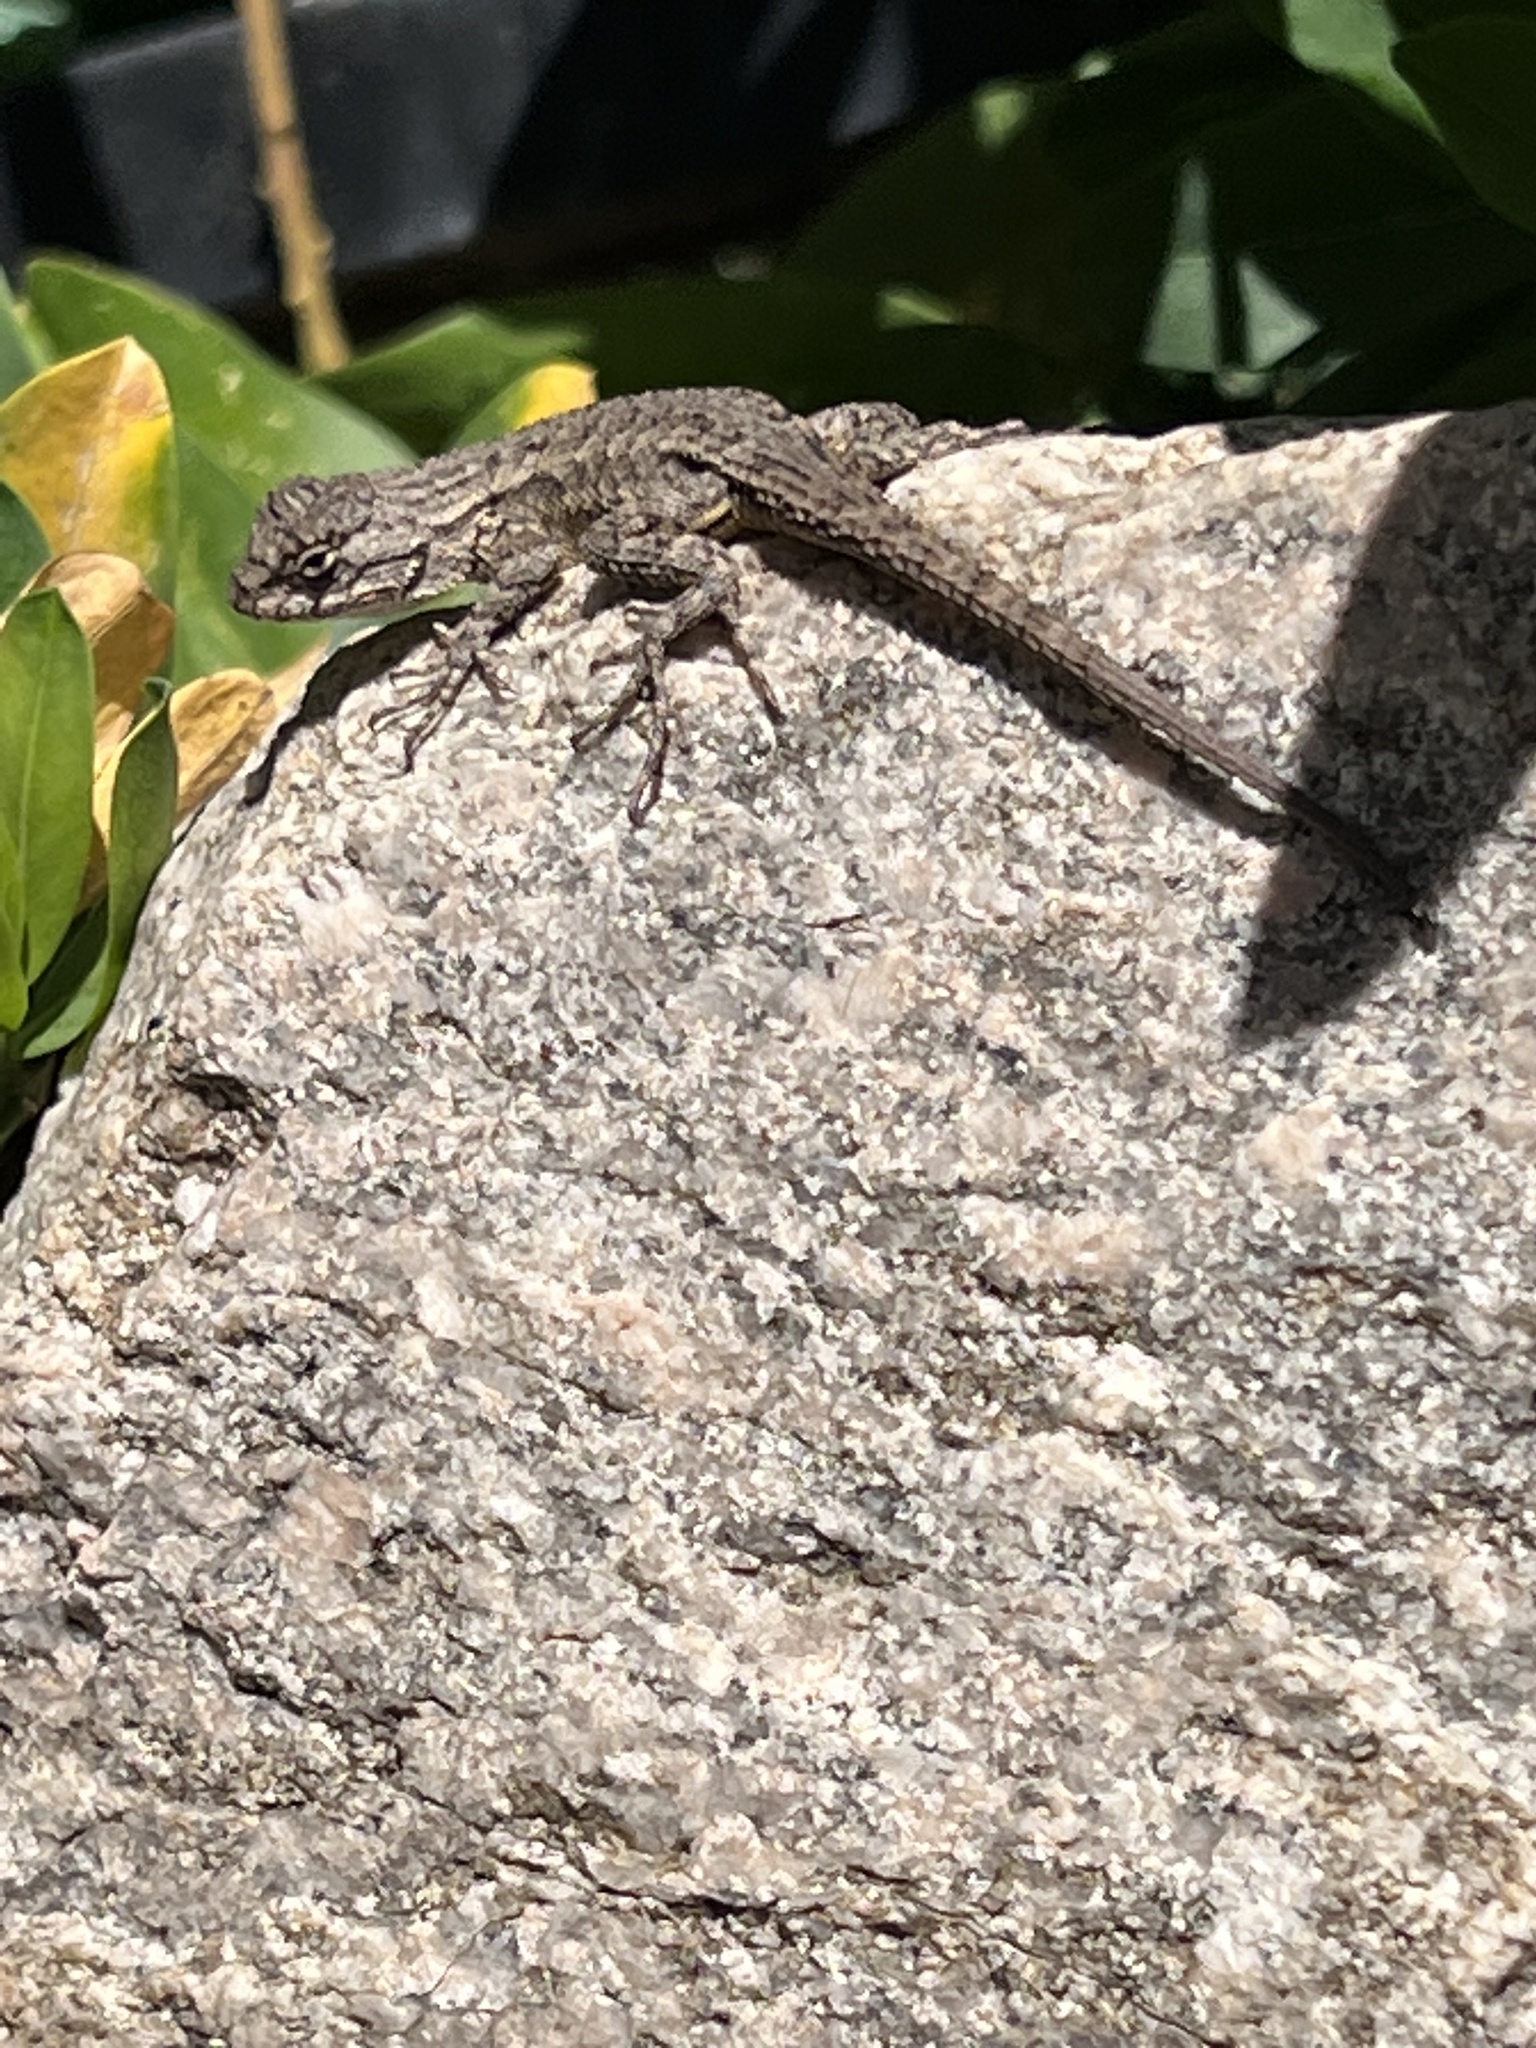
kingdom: Animalia
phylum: Chordata
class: Squamata
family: Phrynosomatidae
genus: Sceloporus
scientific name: Sceloporus occidentalis
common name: Western fence lizard
